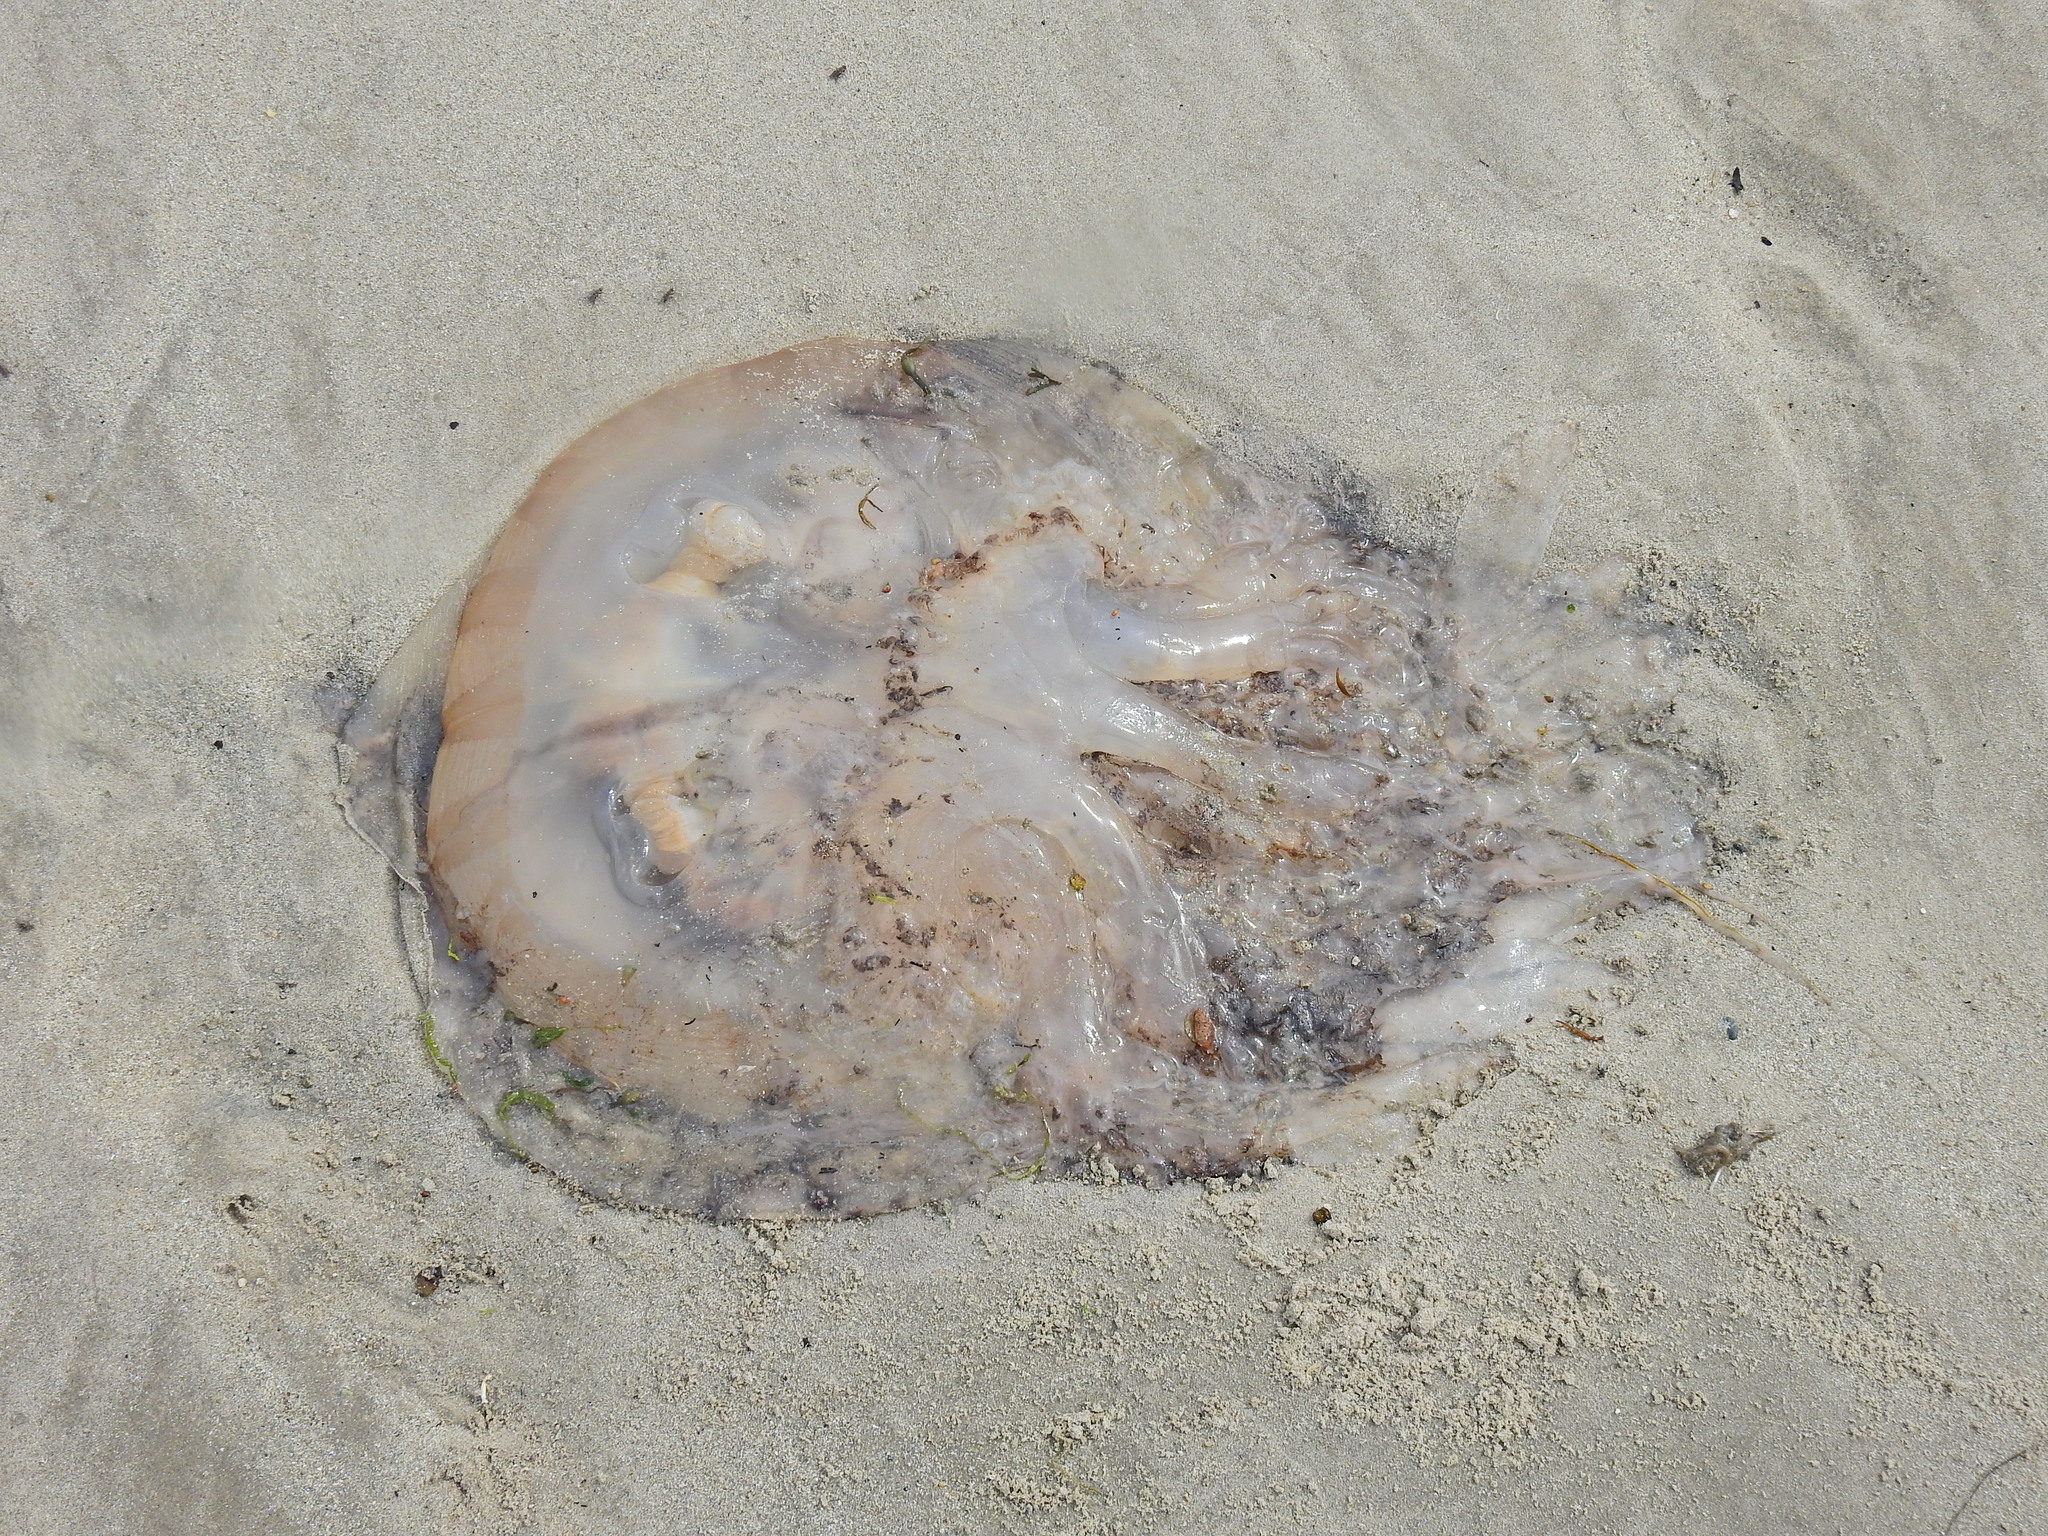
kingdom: Animalia
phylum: Cnidaria
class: Scyphozoa
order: Rhizostomeae
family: Rhizostomatidae
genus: Rhizostoma
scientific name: Rhizostoma octopus
